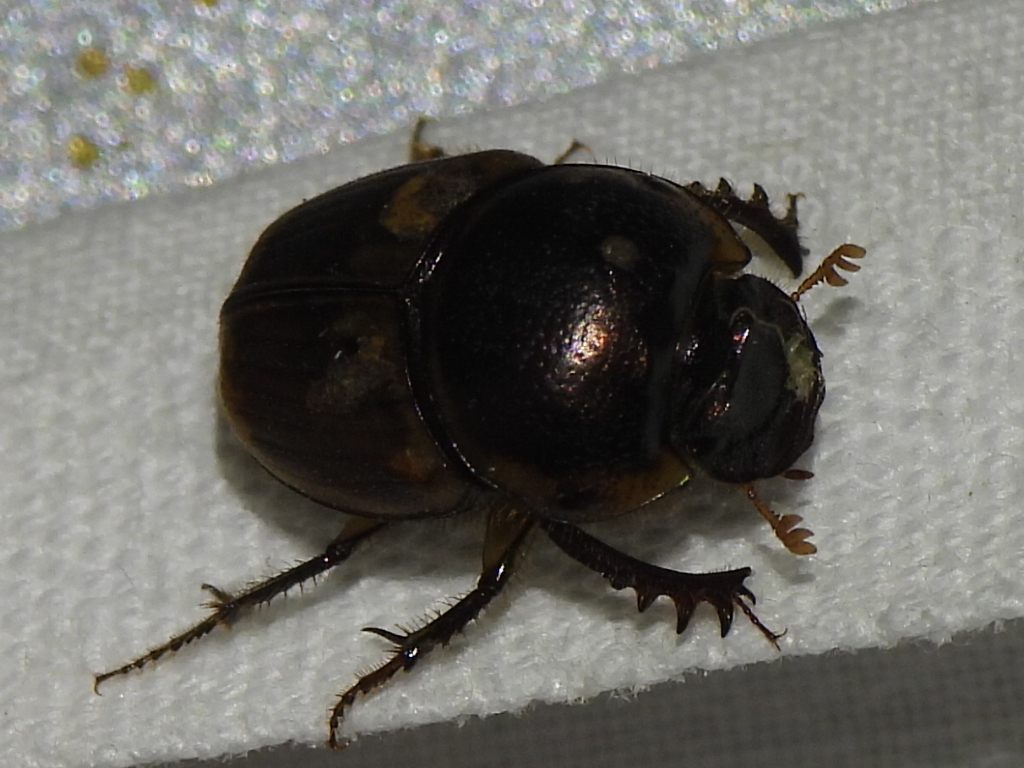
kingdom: Animalia
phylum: Arthropoda
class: Insecta
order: Coleoptera
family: Scarabaeidae
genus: Digitonthophagus
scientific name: Digitonthophagus gazella
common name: Brown dung beetle
